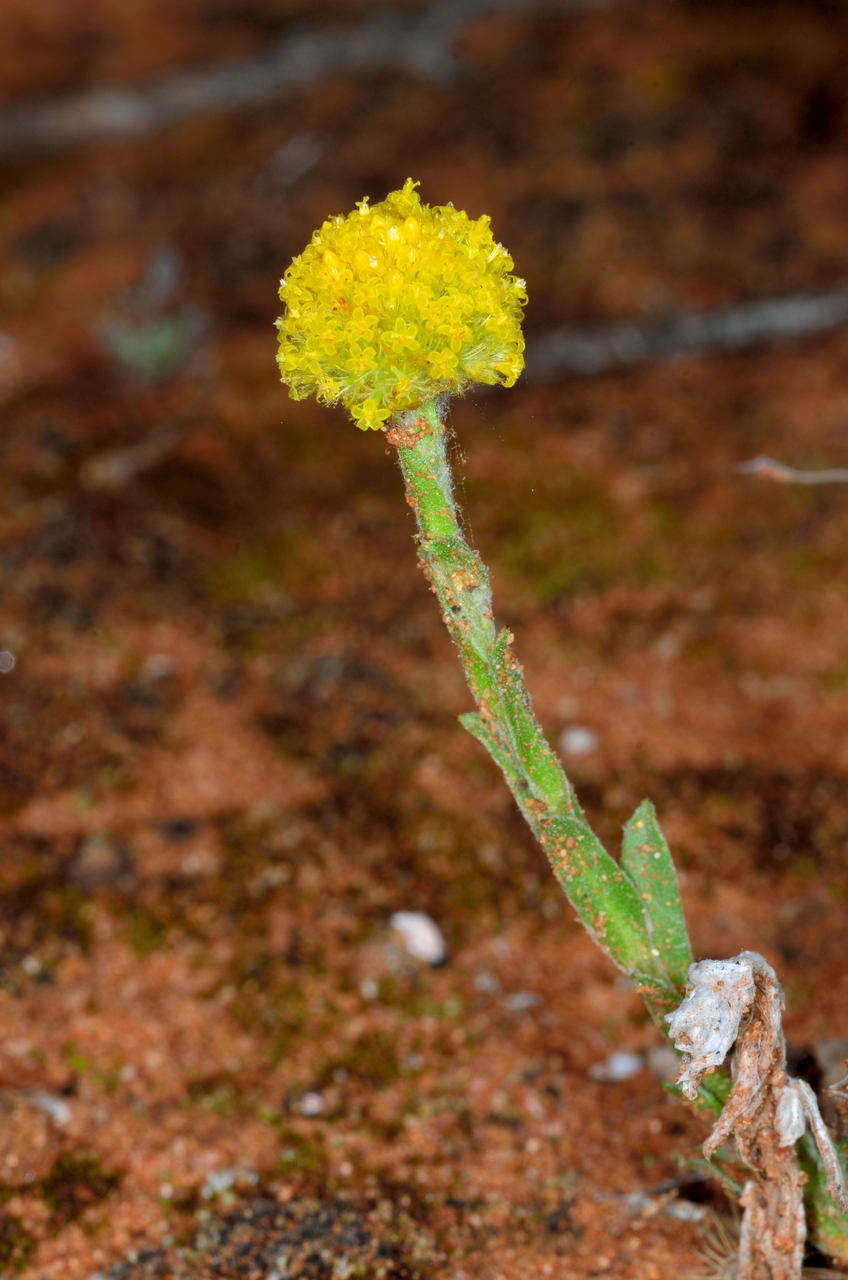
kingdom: Plantae
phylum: Tracheophyta
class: Magnoliopsida
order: Asterales
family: Asteraceae
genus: Pycnosorus
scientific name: Pycnosorus pleiocephalus
